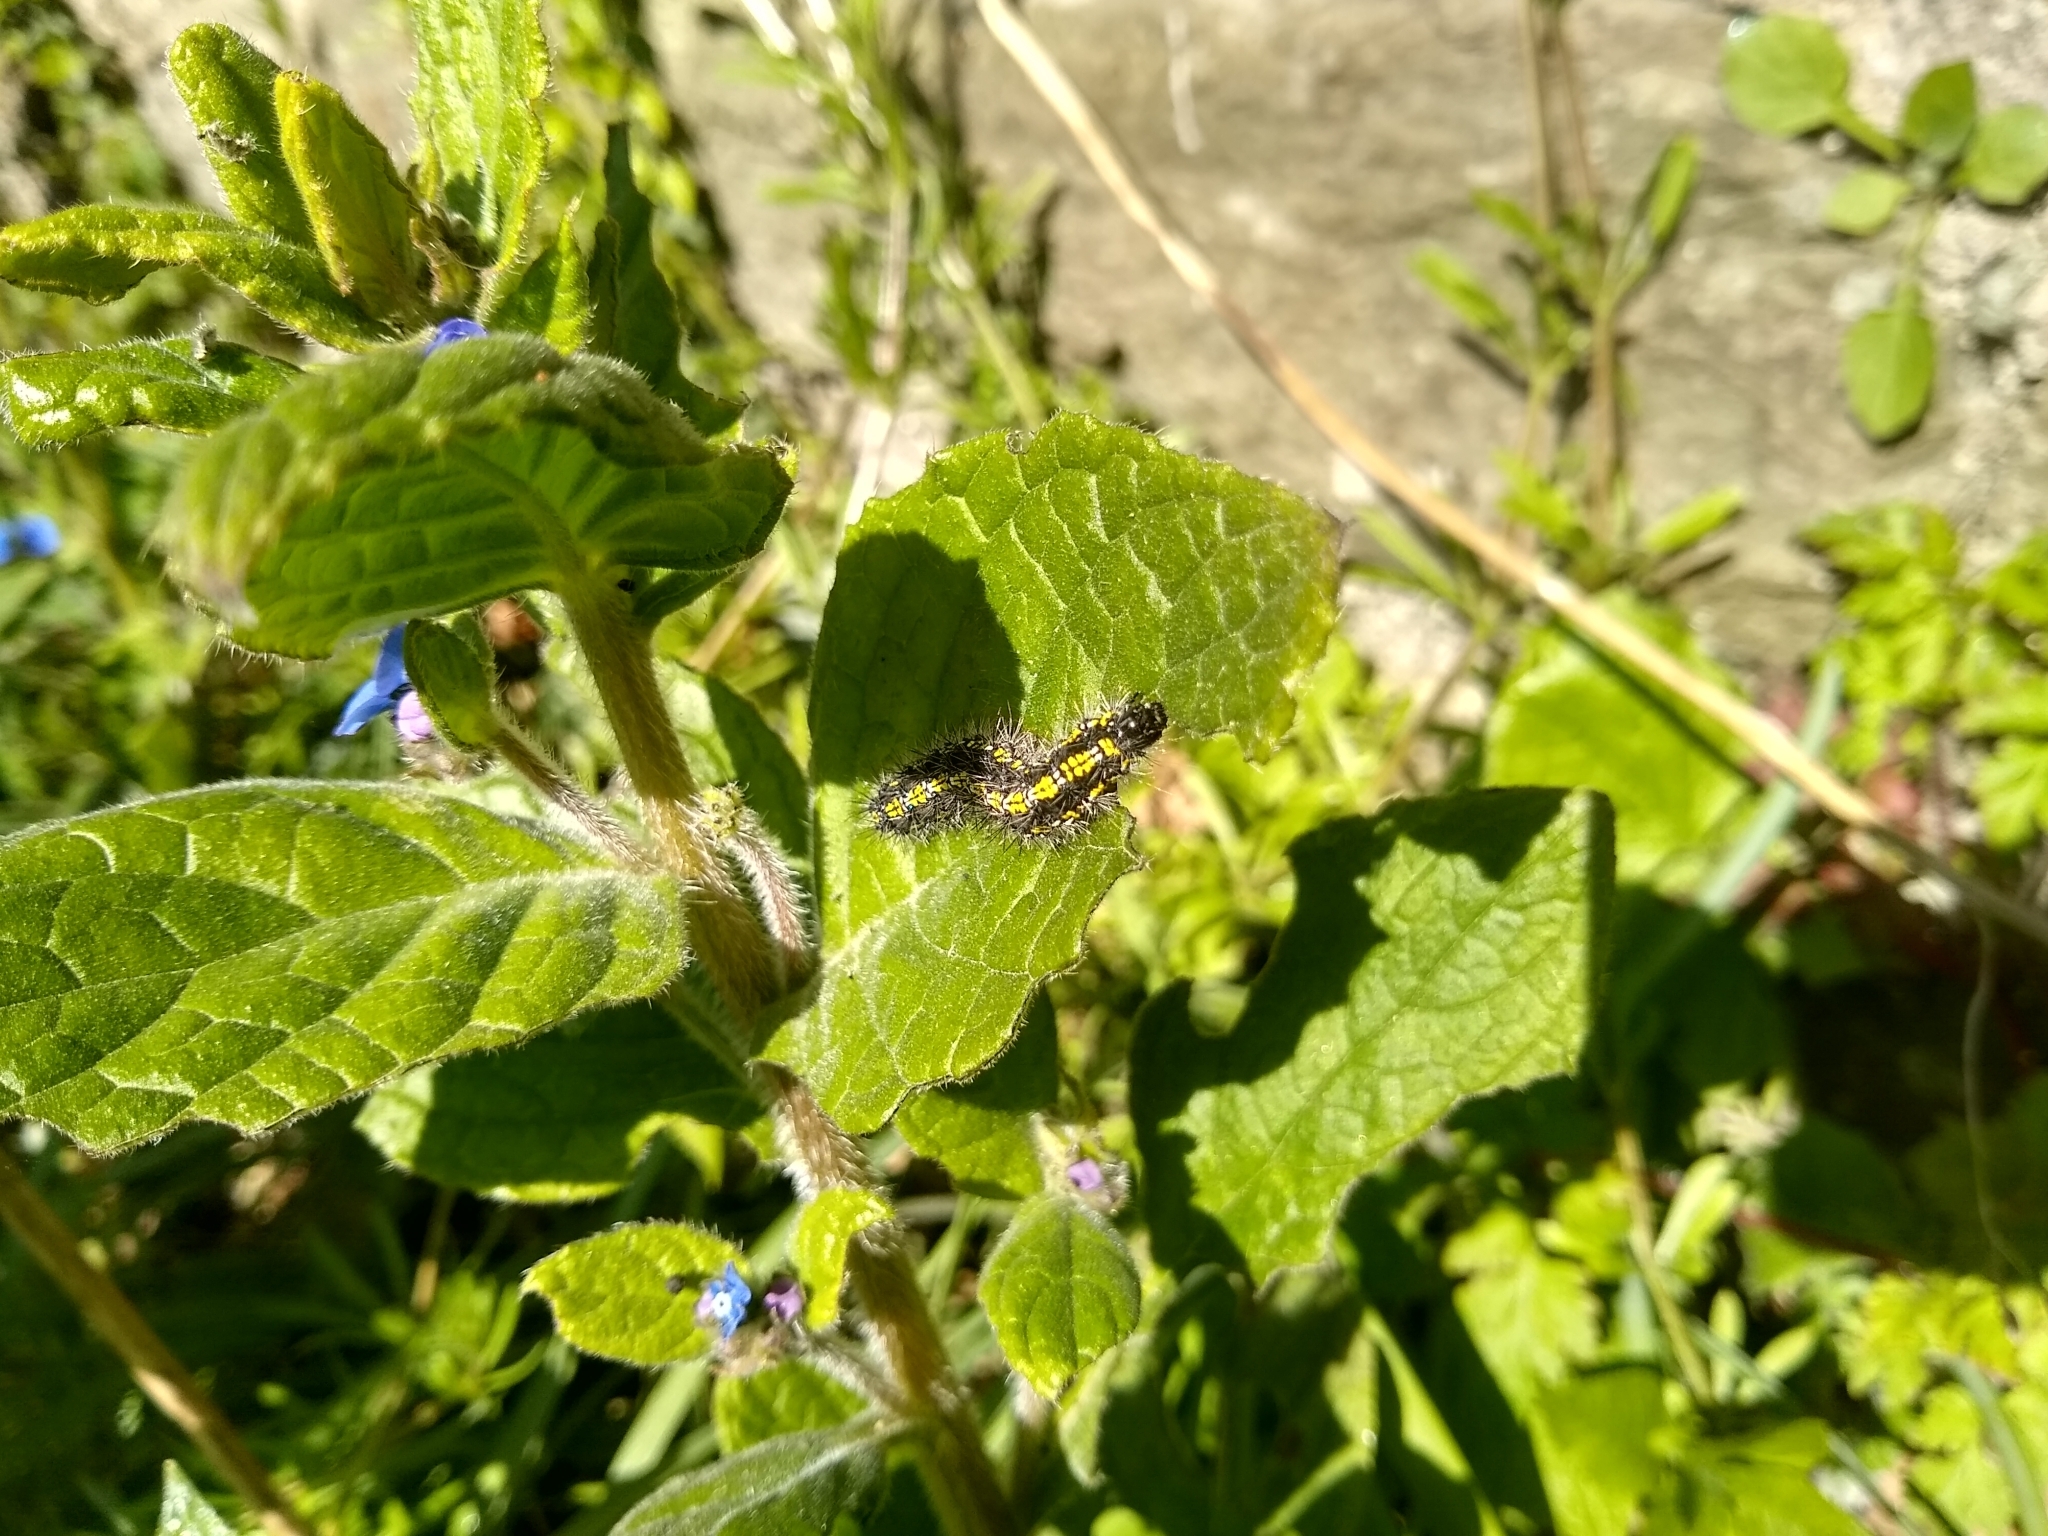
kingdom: Animalia
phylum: Arthropoda
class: Insecta
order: Lepidoptera
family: Erebidae
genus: Callimorpha
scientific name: Callimorpha dominula
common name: Scarlet tiger
